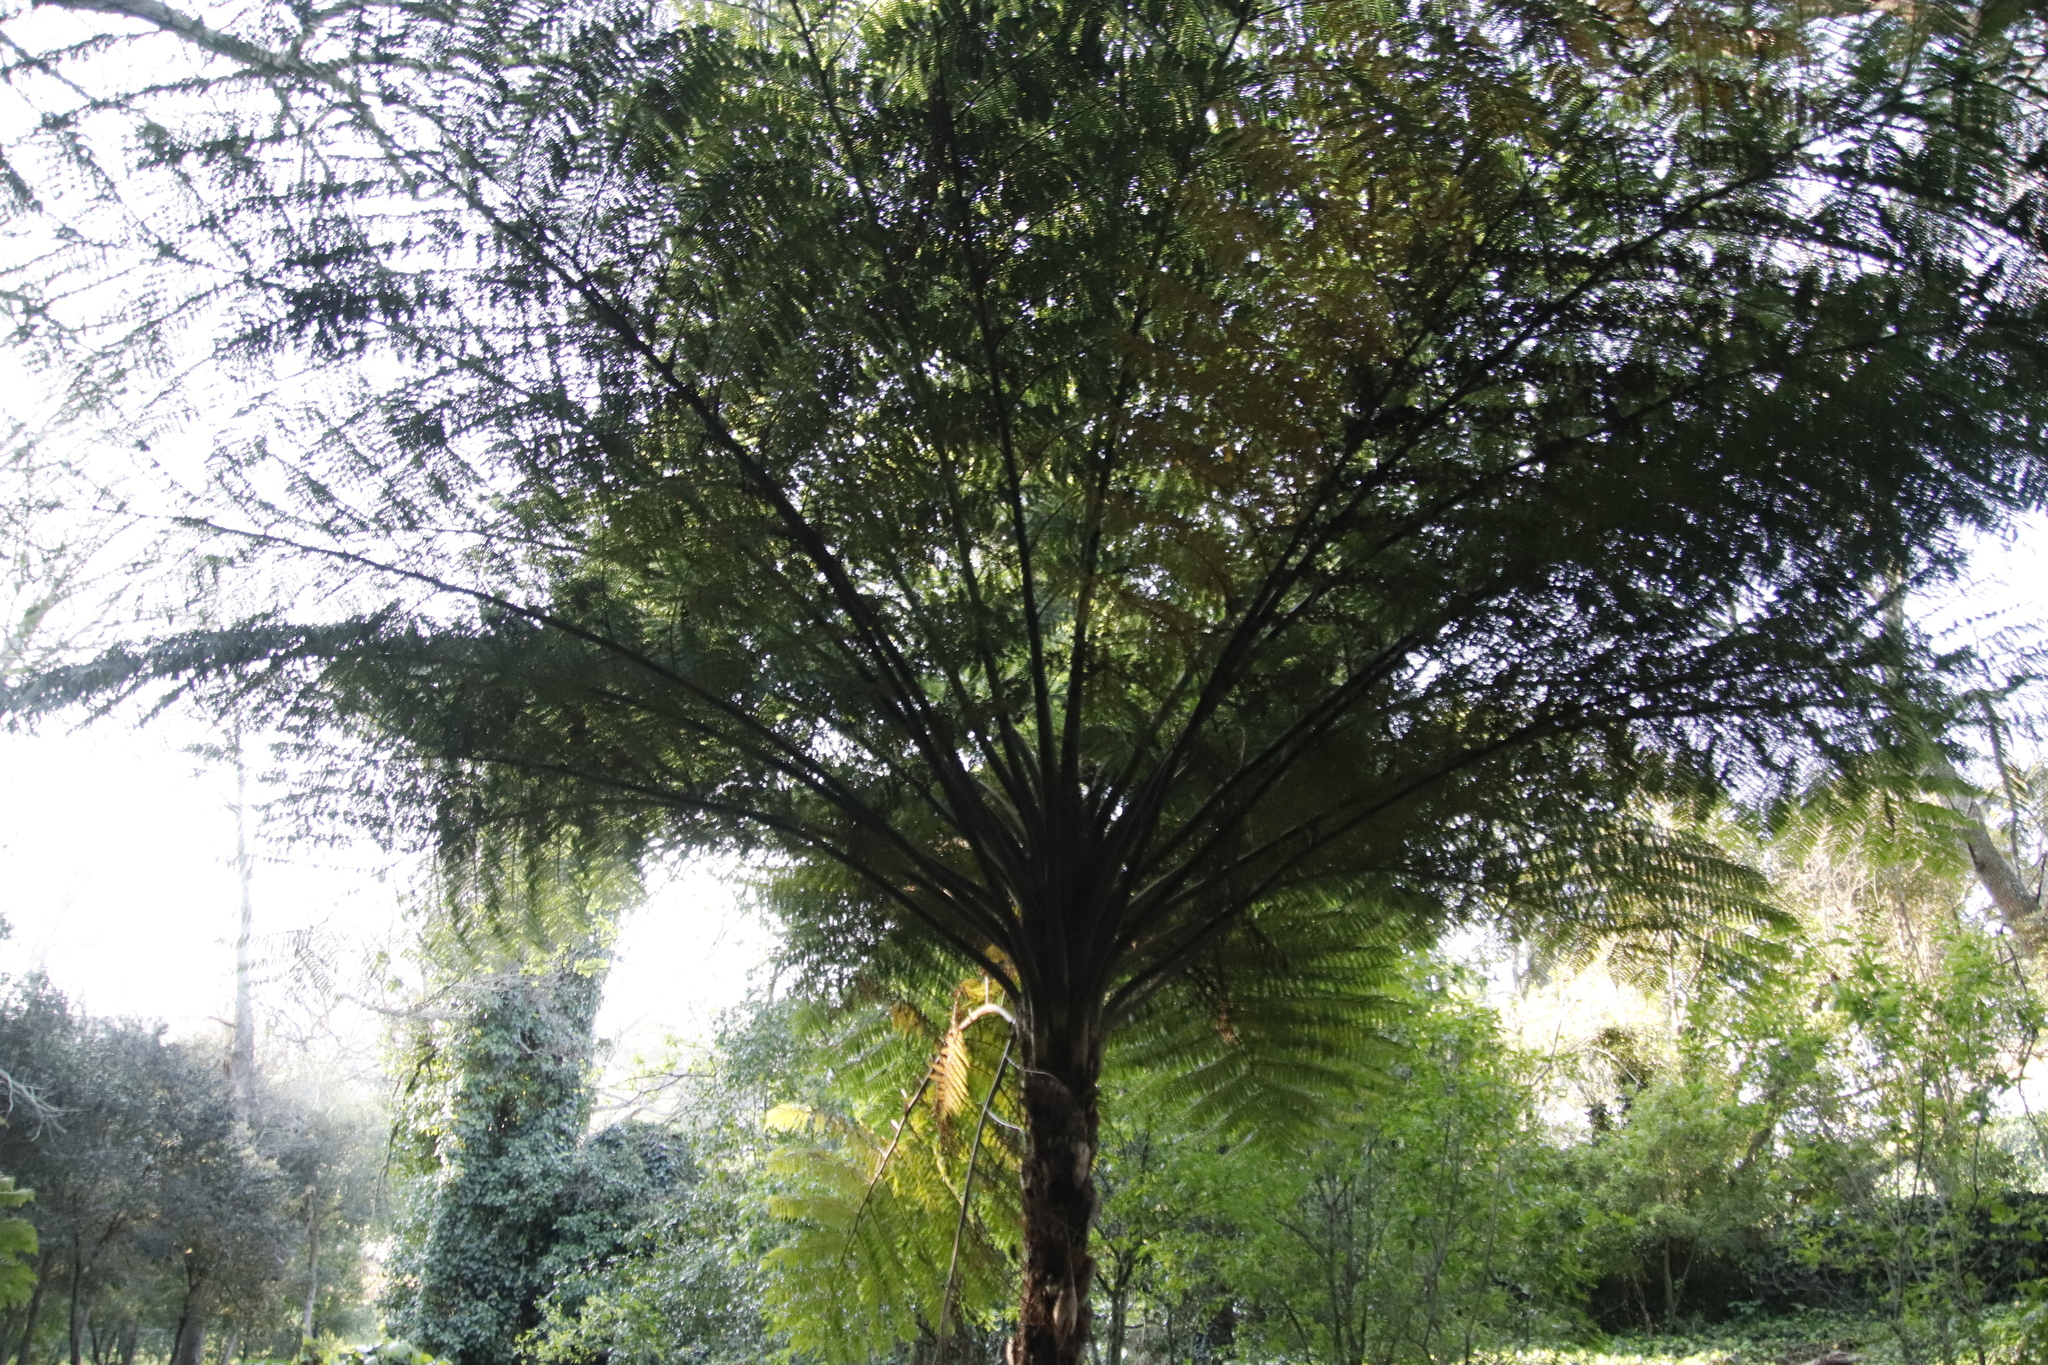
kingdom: Plantae
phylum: Tracheophyta
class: Polypodiopsida
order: Cyatheales
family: Cyatheaceae
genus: Sphaeropteris
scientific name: Sphaeropteris cooperi
